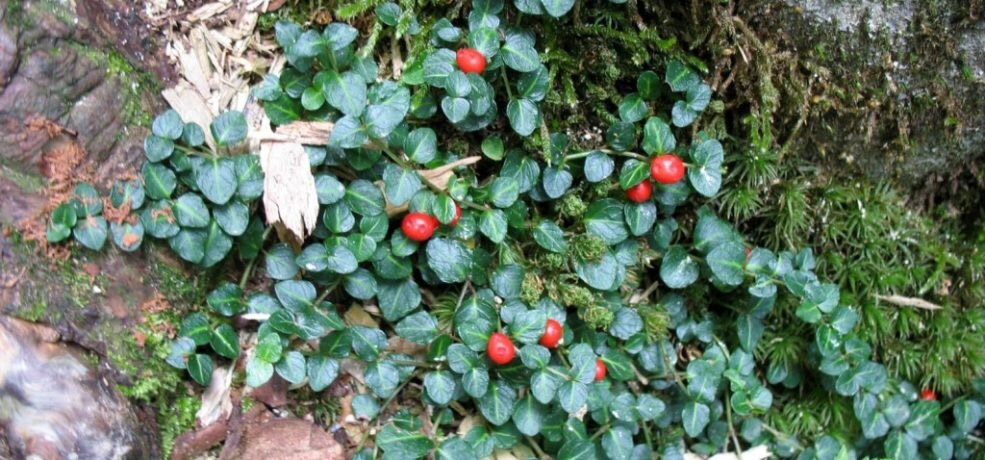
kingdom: Plantae
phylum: Tracheophyta
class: Magnoliopsida
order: Gentianales
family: Rubiaceae
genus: Mitchella
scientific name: Mitchella repens
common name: Partridge-berry
